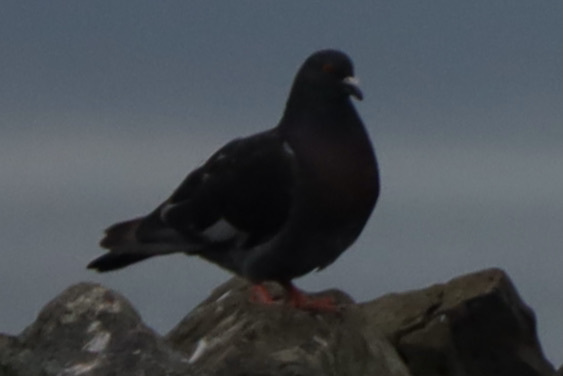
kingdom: Animalia
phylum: Chordata
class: Aves
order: Columbiformes
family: Columbidae
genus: Columba
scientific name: Columba livia
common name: Rock pigeon
